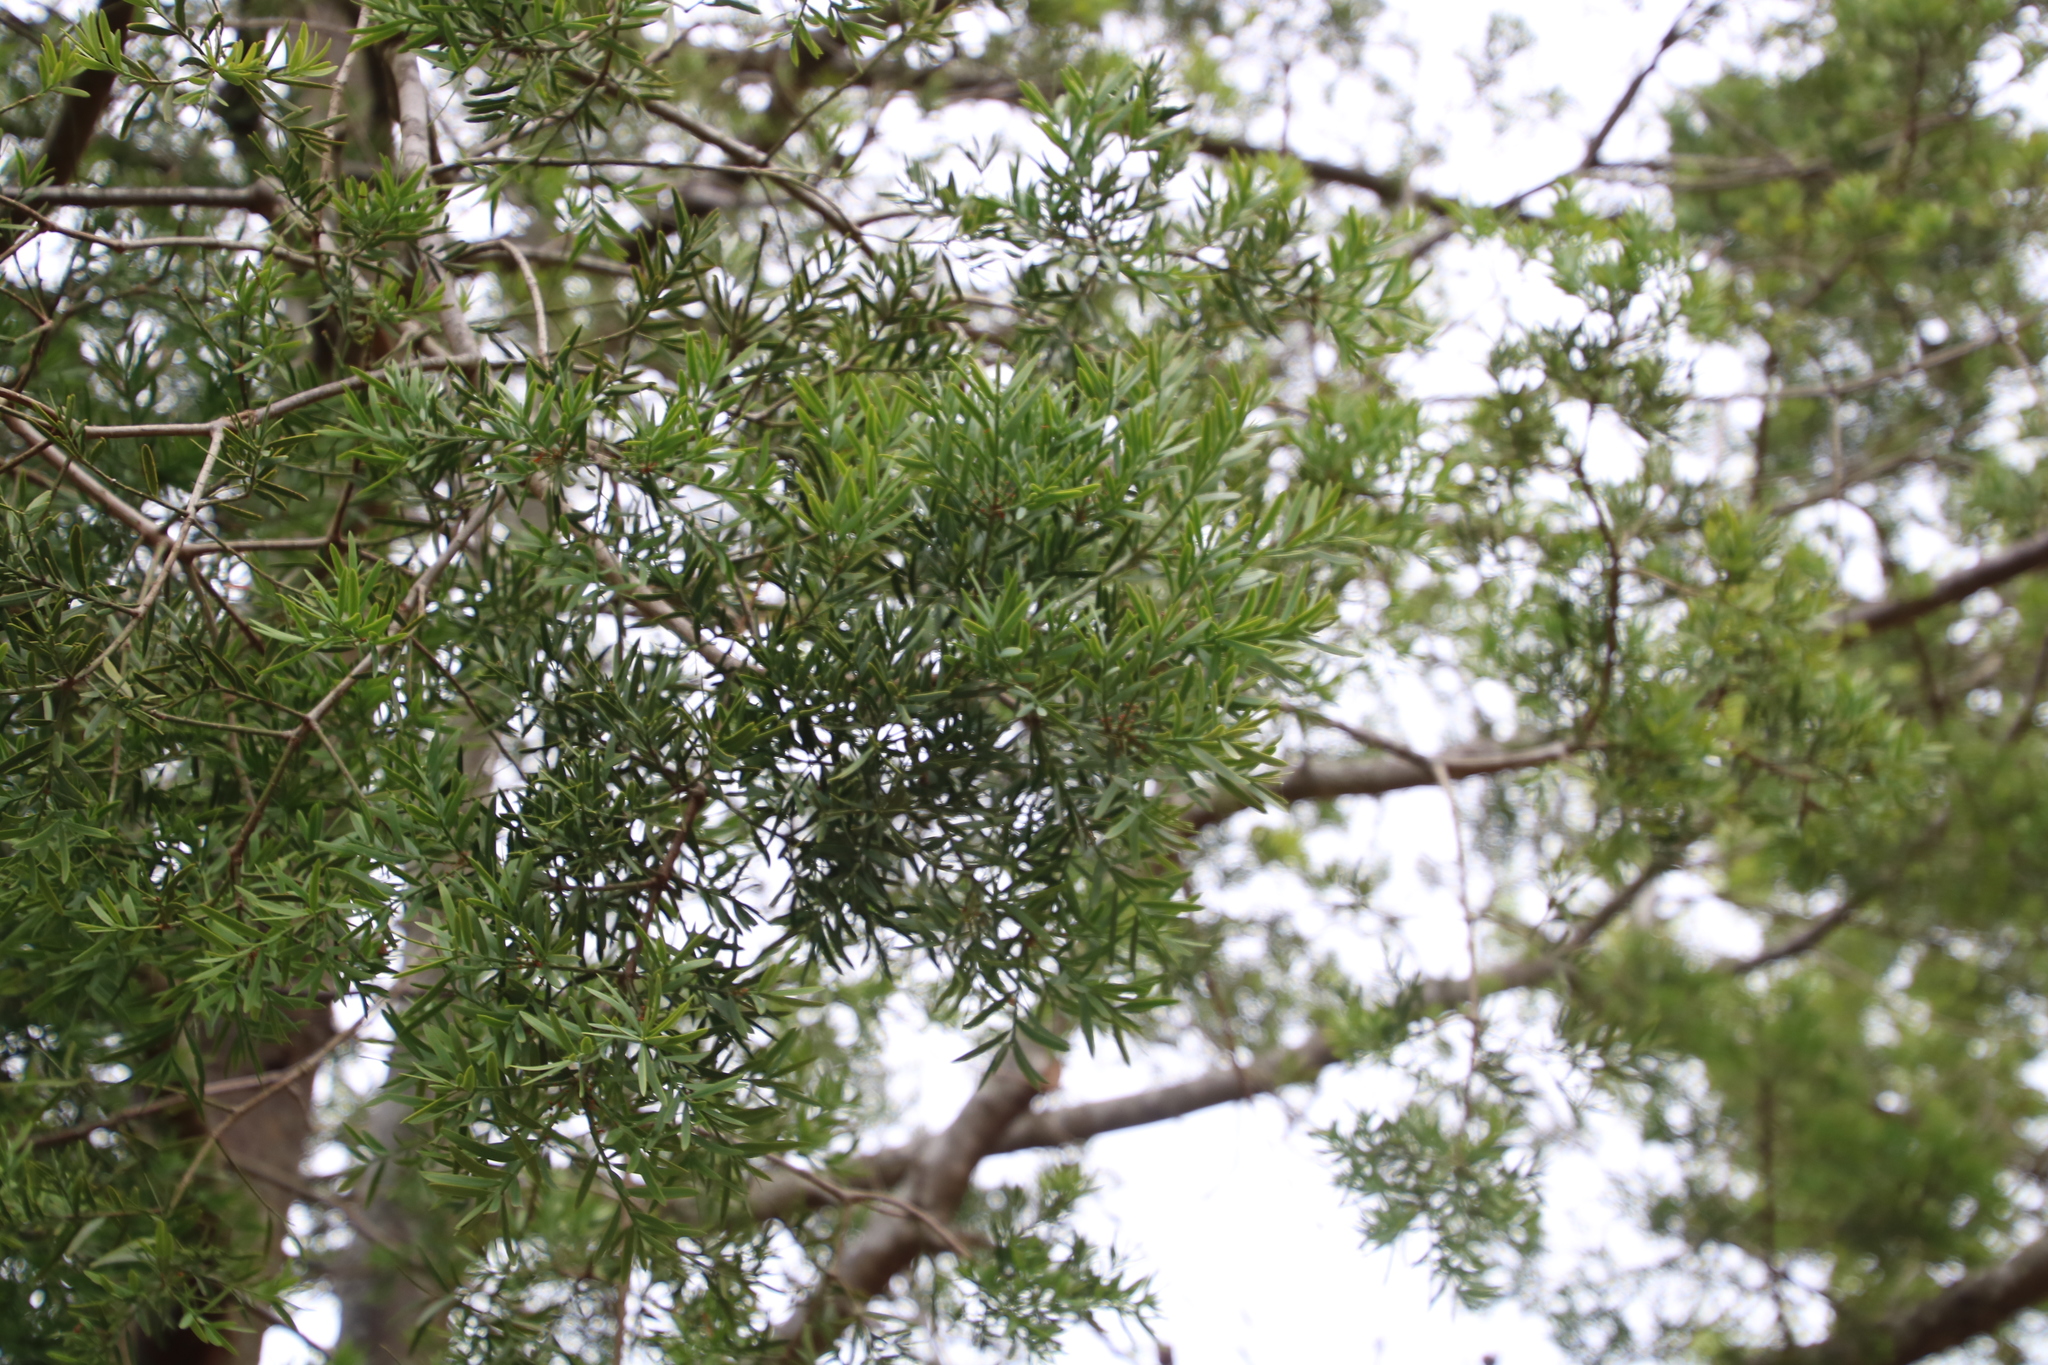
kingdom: Plantae
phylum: Tracheophyta
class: Pinopsida
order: Pinales
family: Podocarpaceae
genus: Afrocarpus
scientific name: Afrocarpus falcatus
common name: Bastard yellowwood
